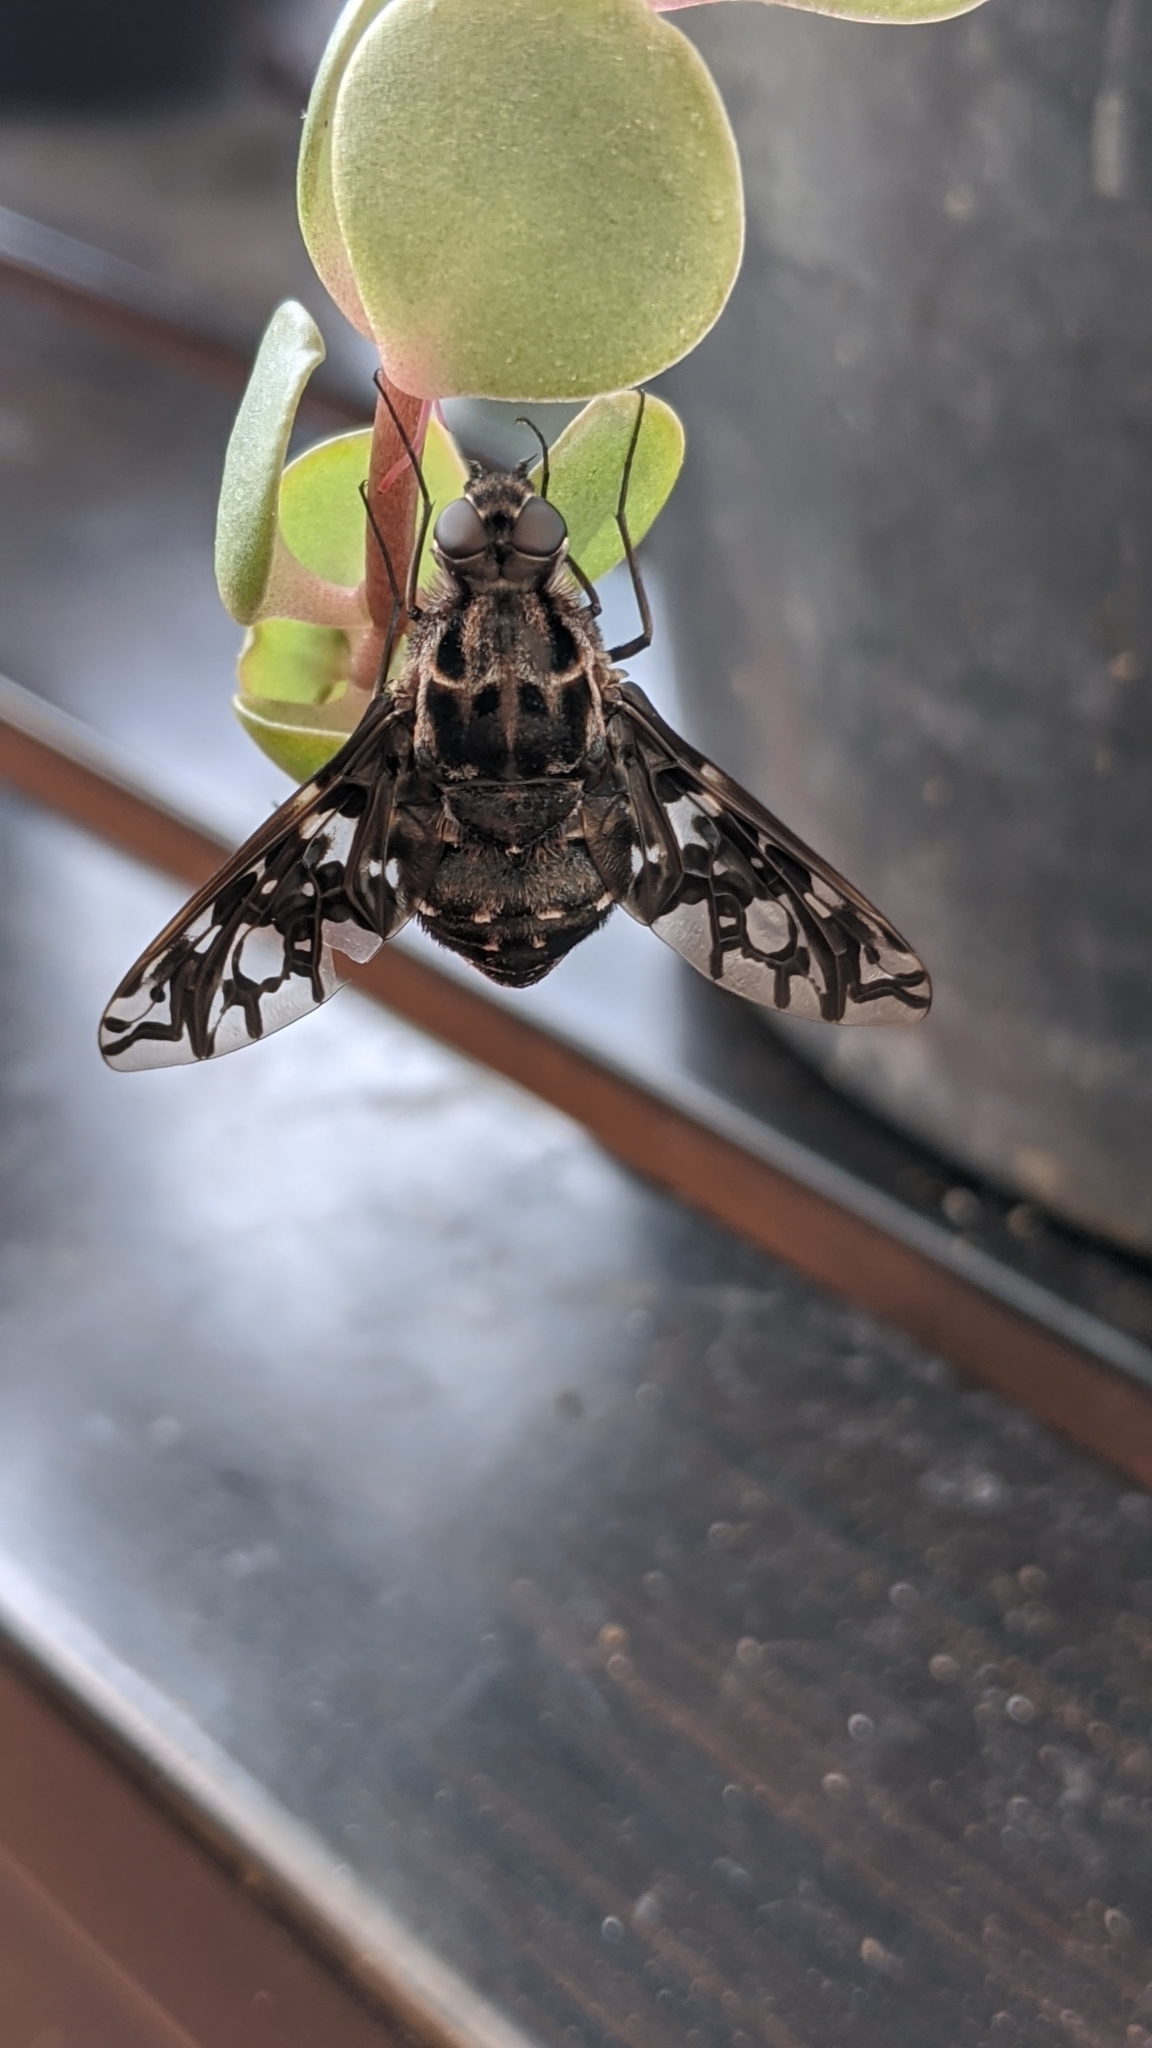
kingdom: Animalia
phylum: Arthropoda
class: Insecta
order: Diptera
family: Bombyliidae
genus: Xenox
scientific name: Xenox tigrinus
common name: Tiger bee fly
